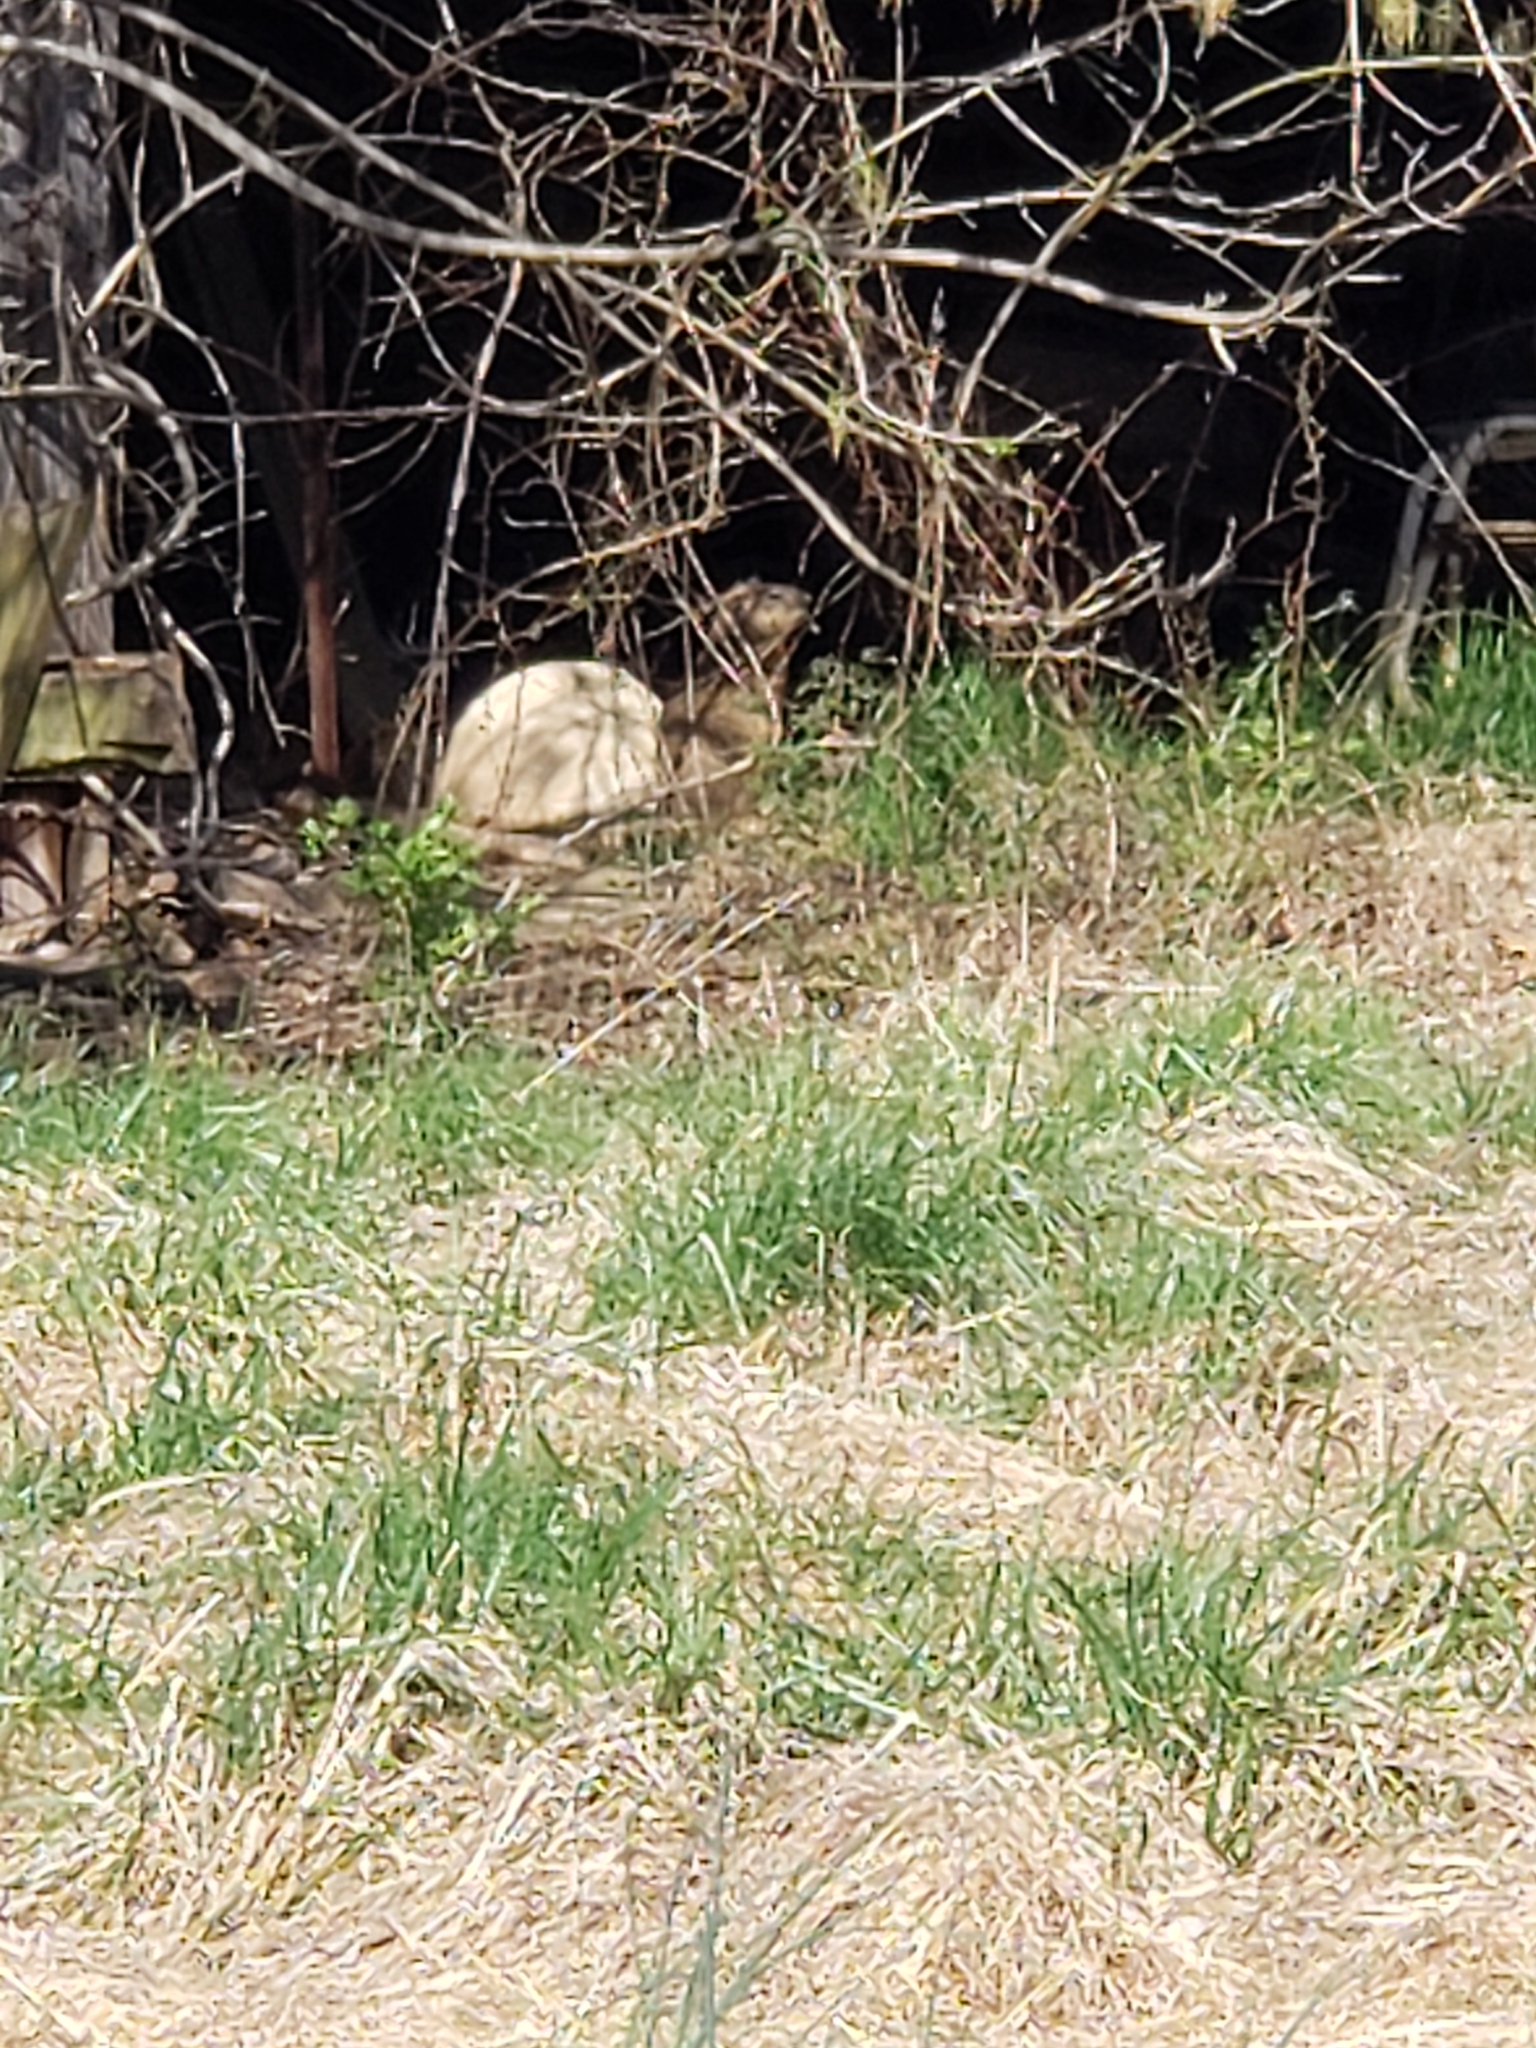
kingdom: Animalia
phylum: Chordata
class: Mammalia
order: Rodentia
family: Sciuridae
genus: Marmota
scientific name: Marmota monax
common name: Groundhog
